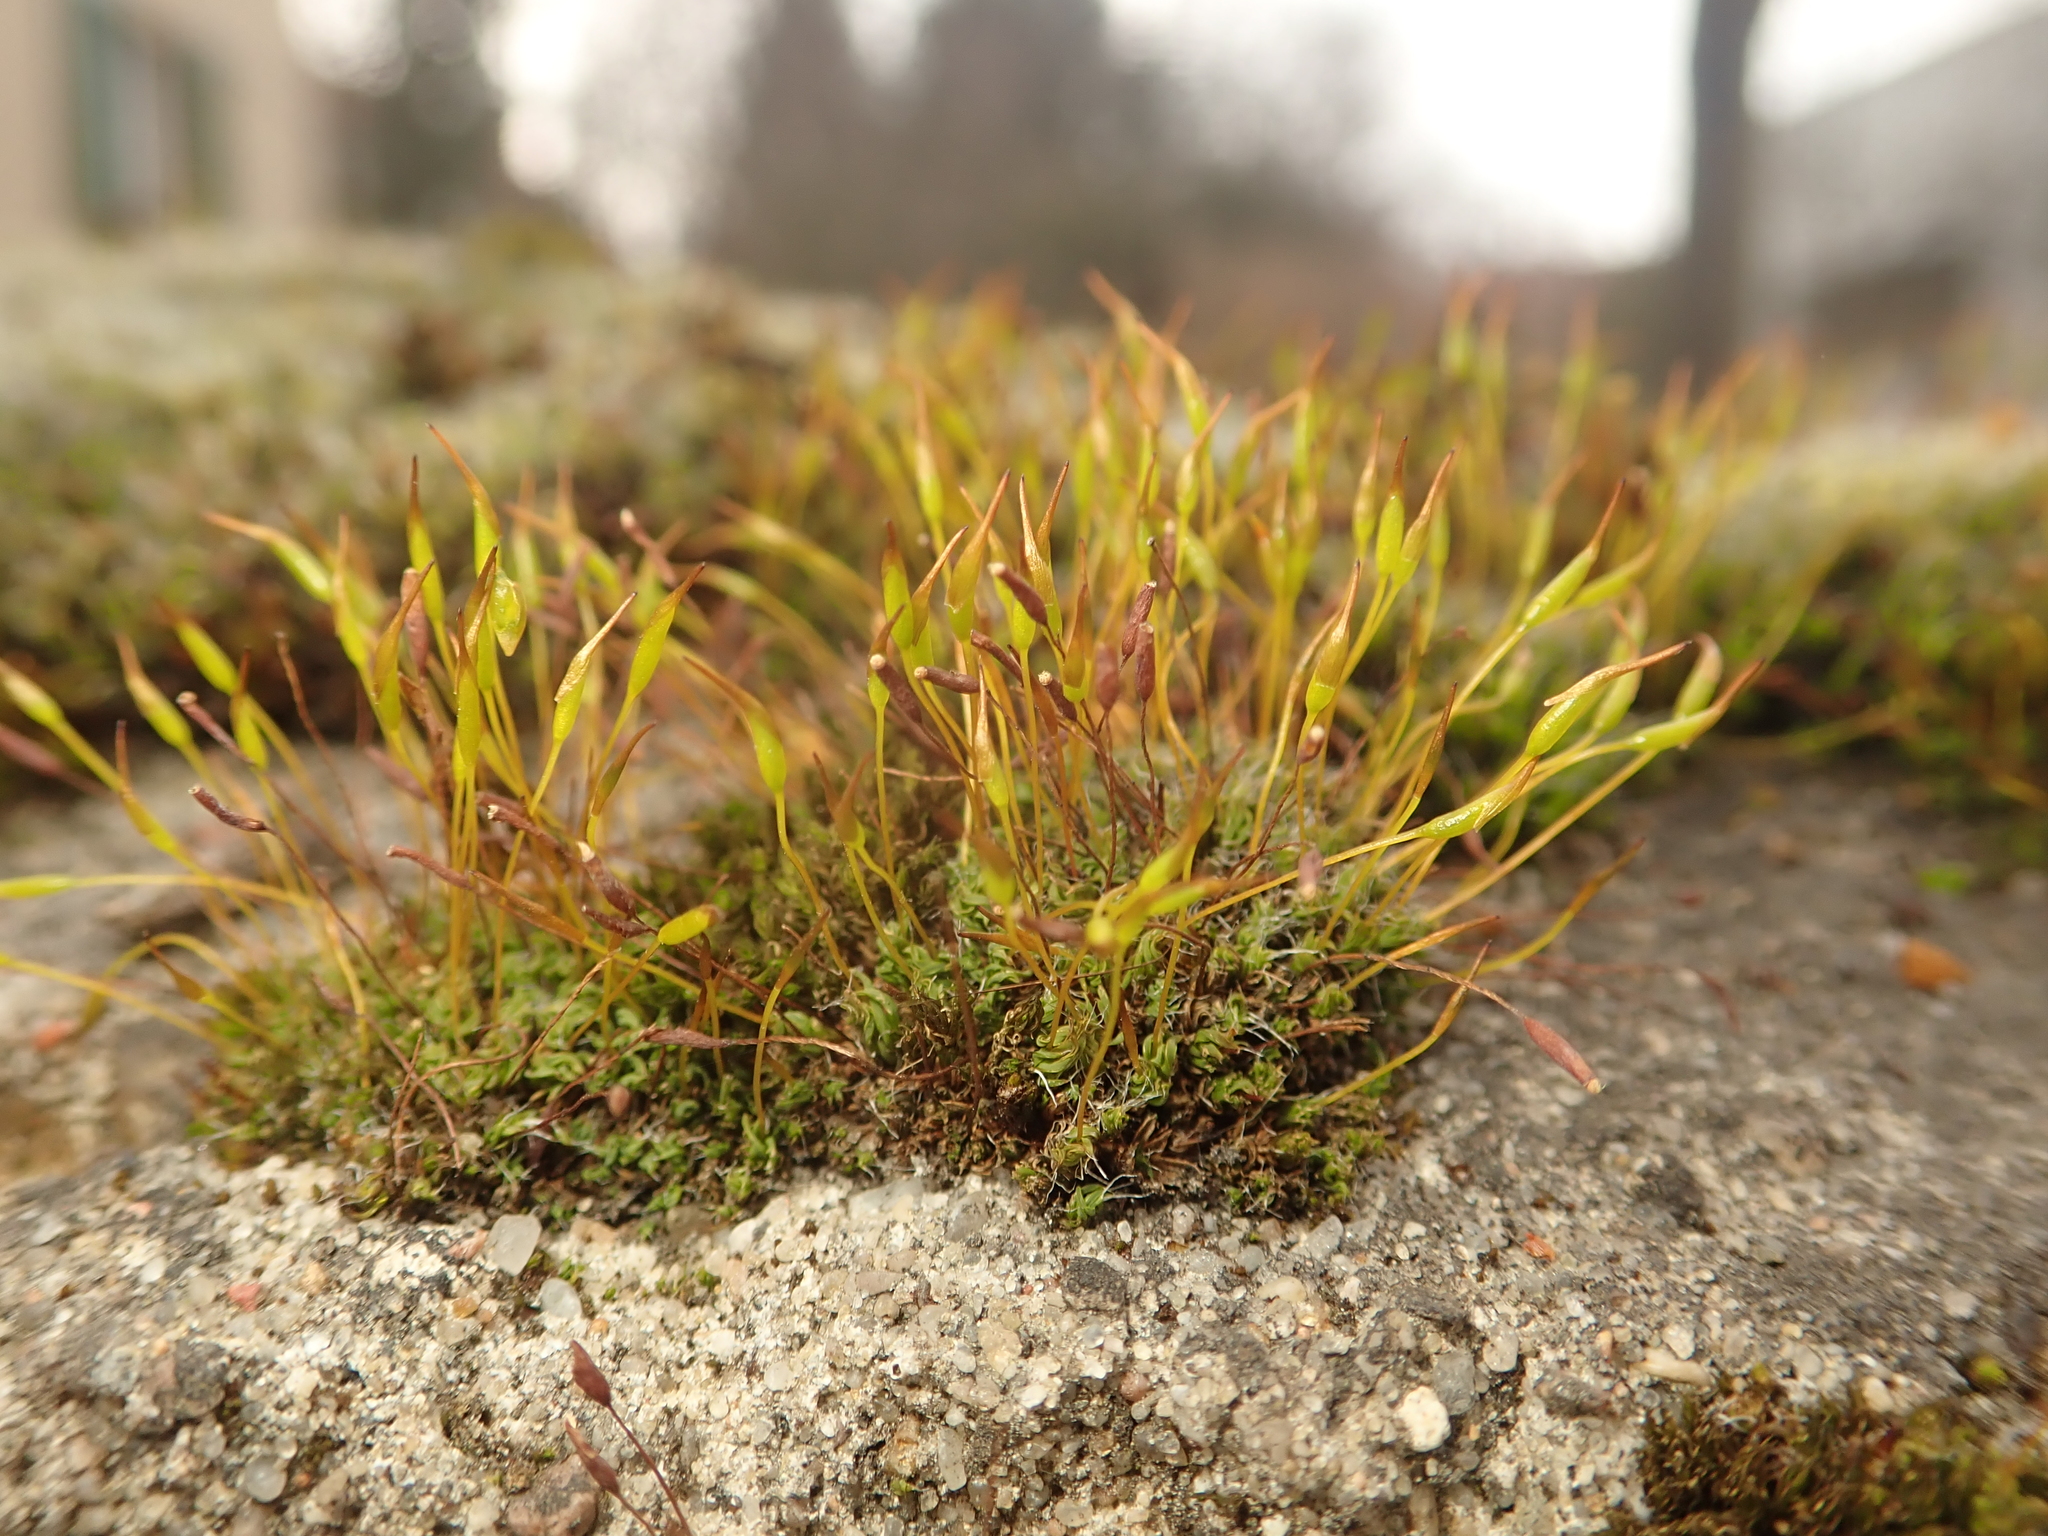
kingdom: Plantae
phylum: Bryophyta
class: Bryopsida
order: Pottiales
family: Pottiaceae
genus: Tortula
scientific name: Tortula muralis
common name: Wall screw-moss
